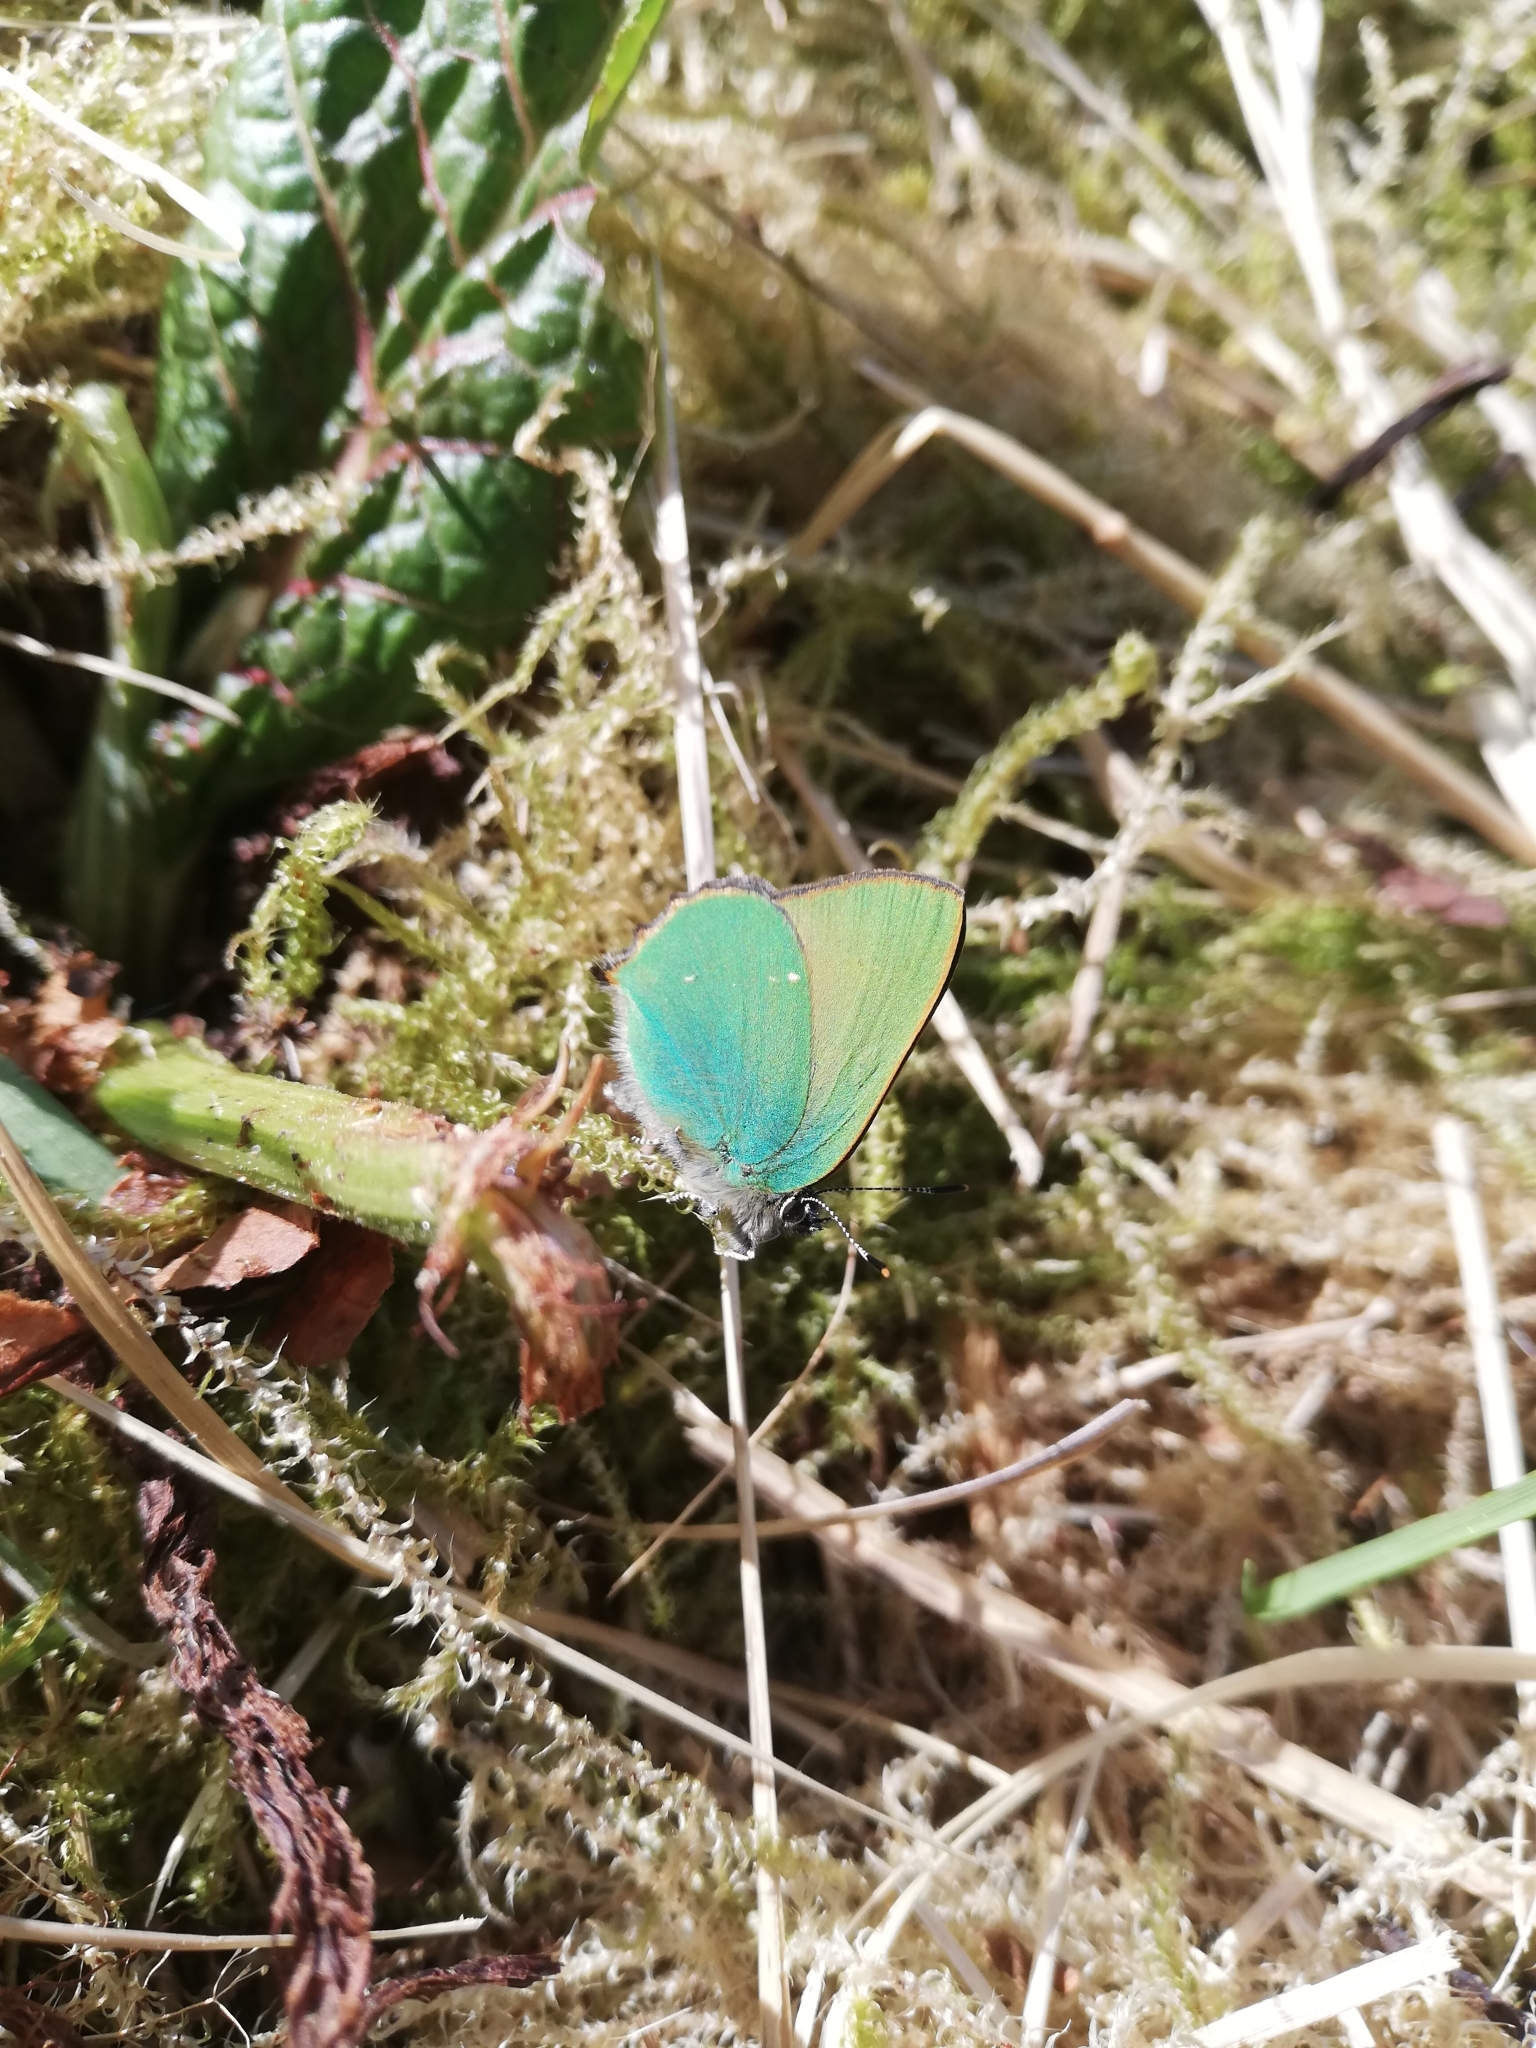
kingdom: Animalia
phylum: Arthropoda
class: Insecta
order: Lepidoptera
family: Lycaenidae
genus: Callophrys
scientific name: Callophrys rubi
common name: Green hairstreak
